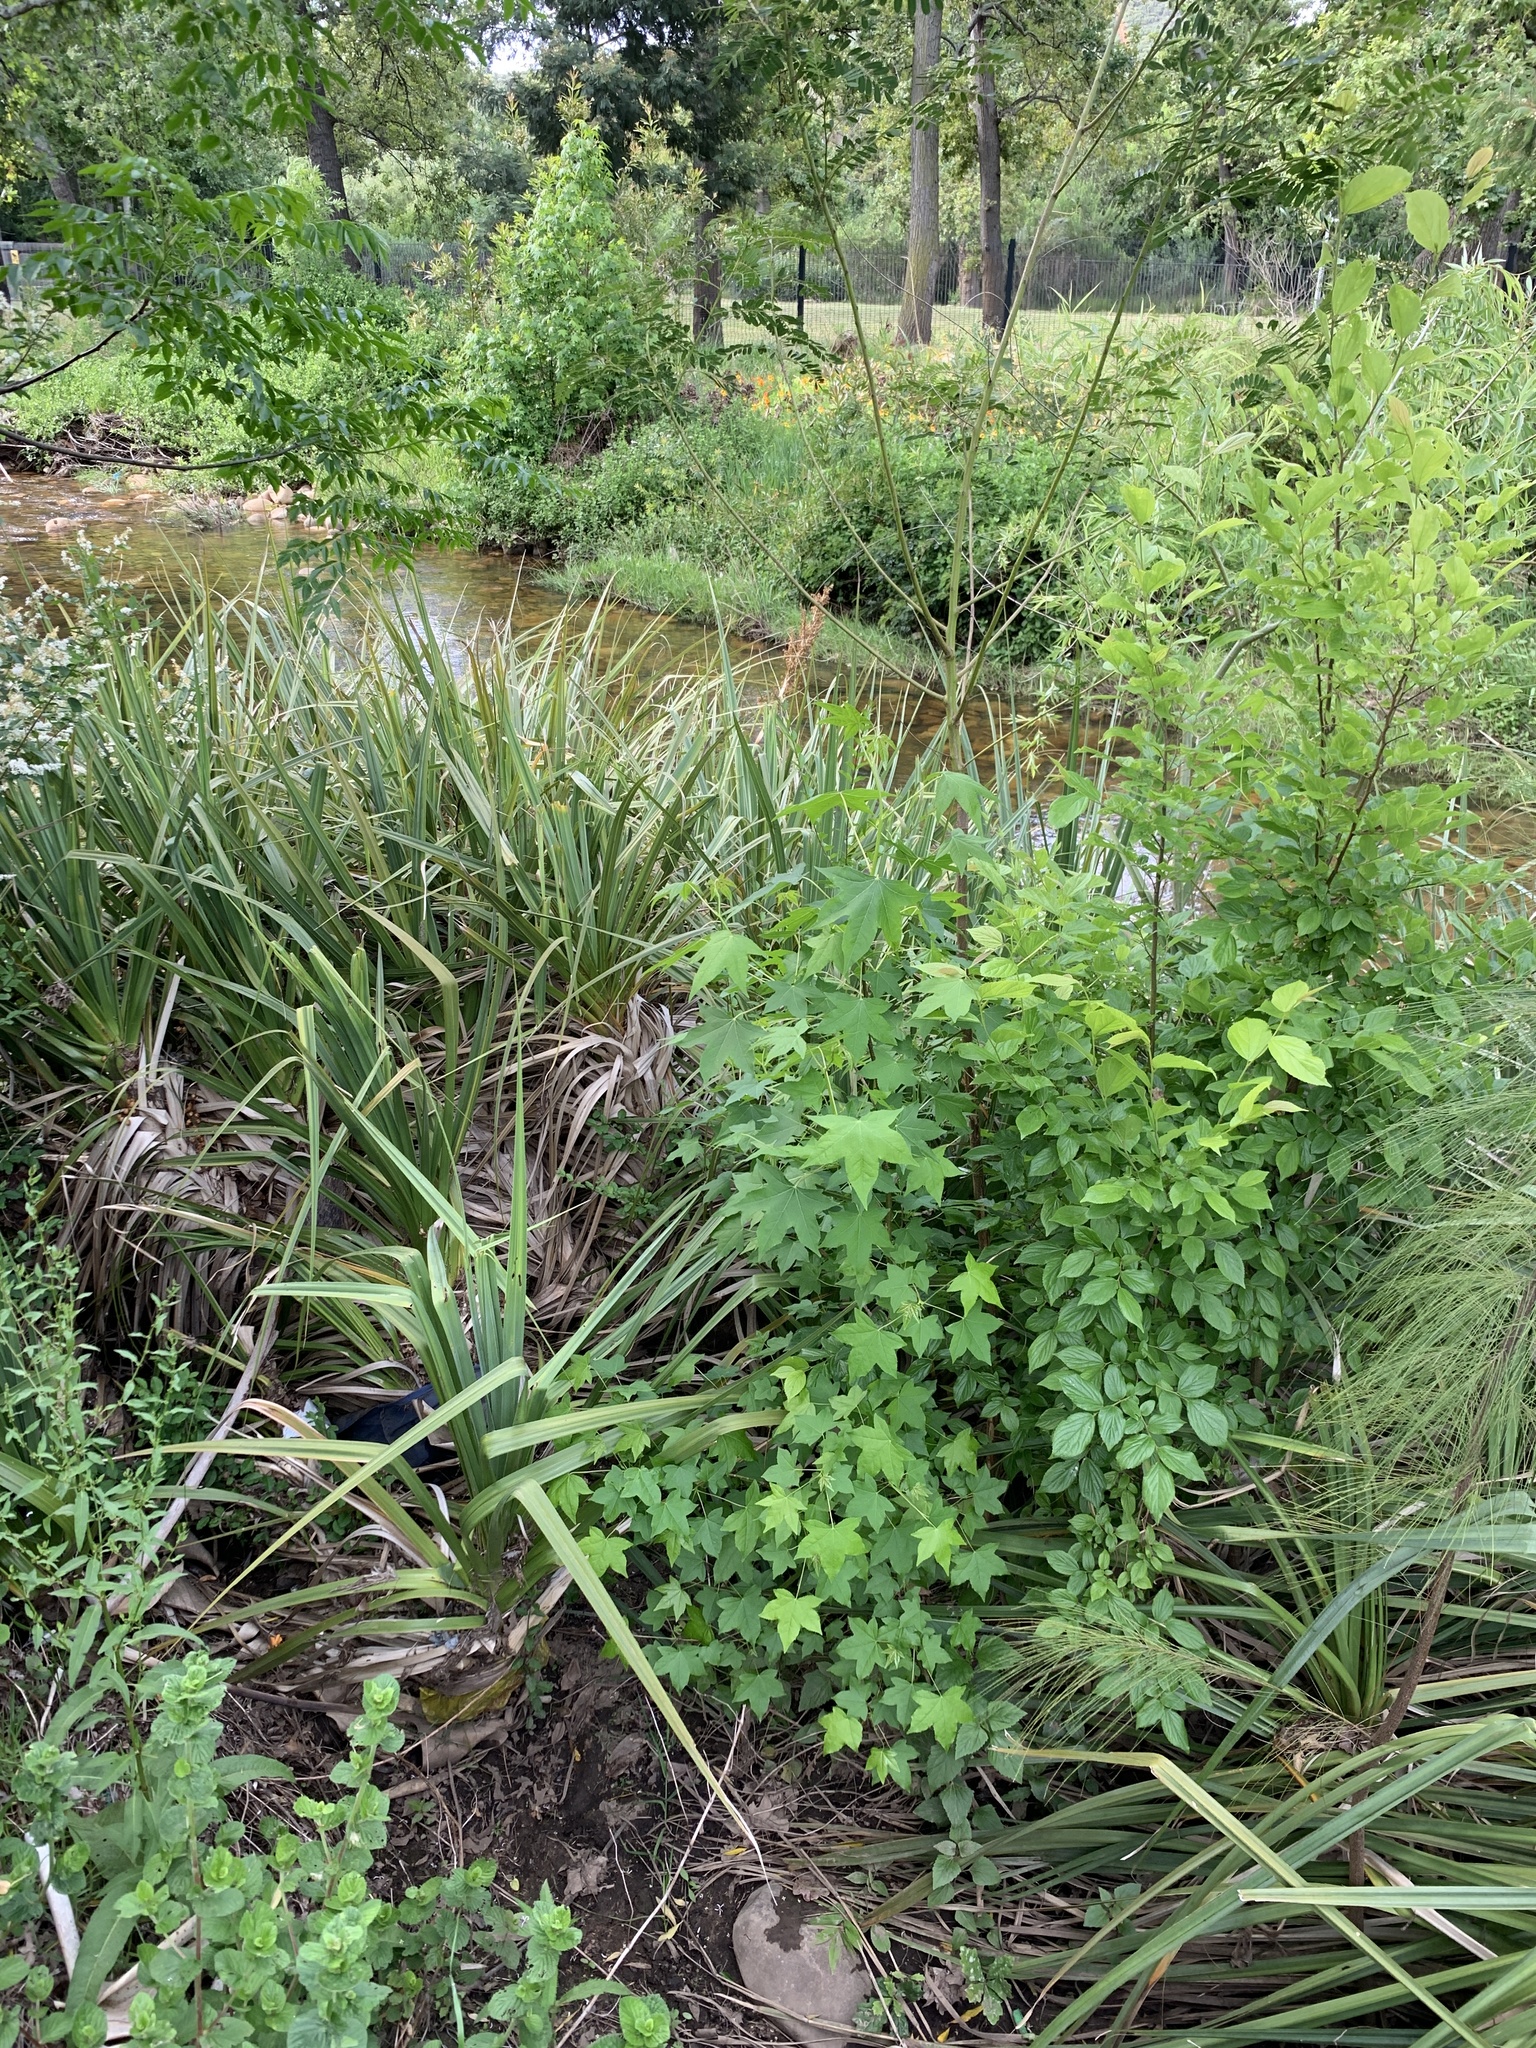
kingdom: Plantae
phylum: Tracheophyta
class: Magnoliopsida
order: Saxifragales
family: Altingiaceae
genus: Liquidambar
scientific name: Liquidambar styraciflua
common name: Sweet gum
